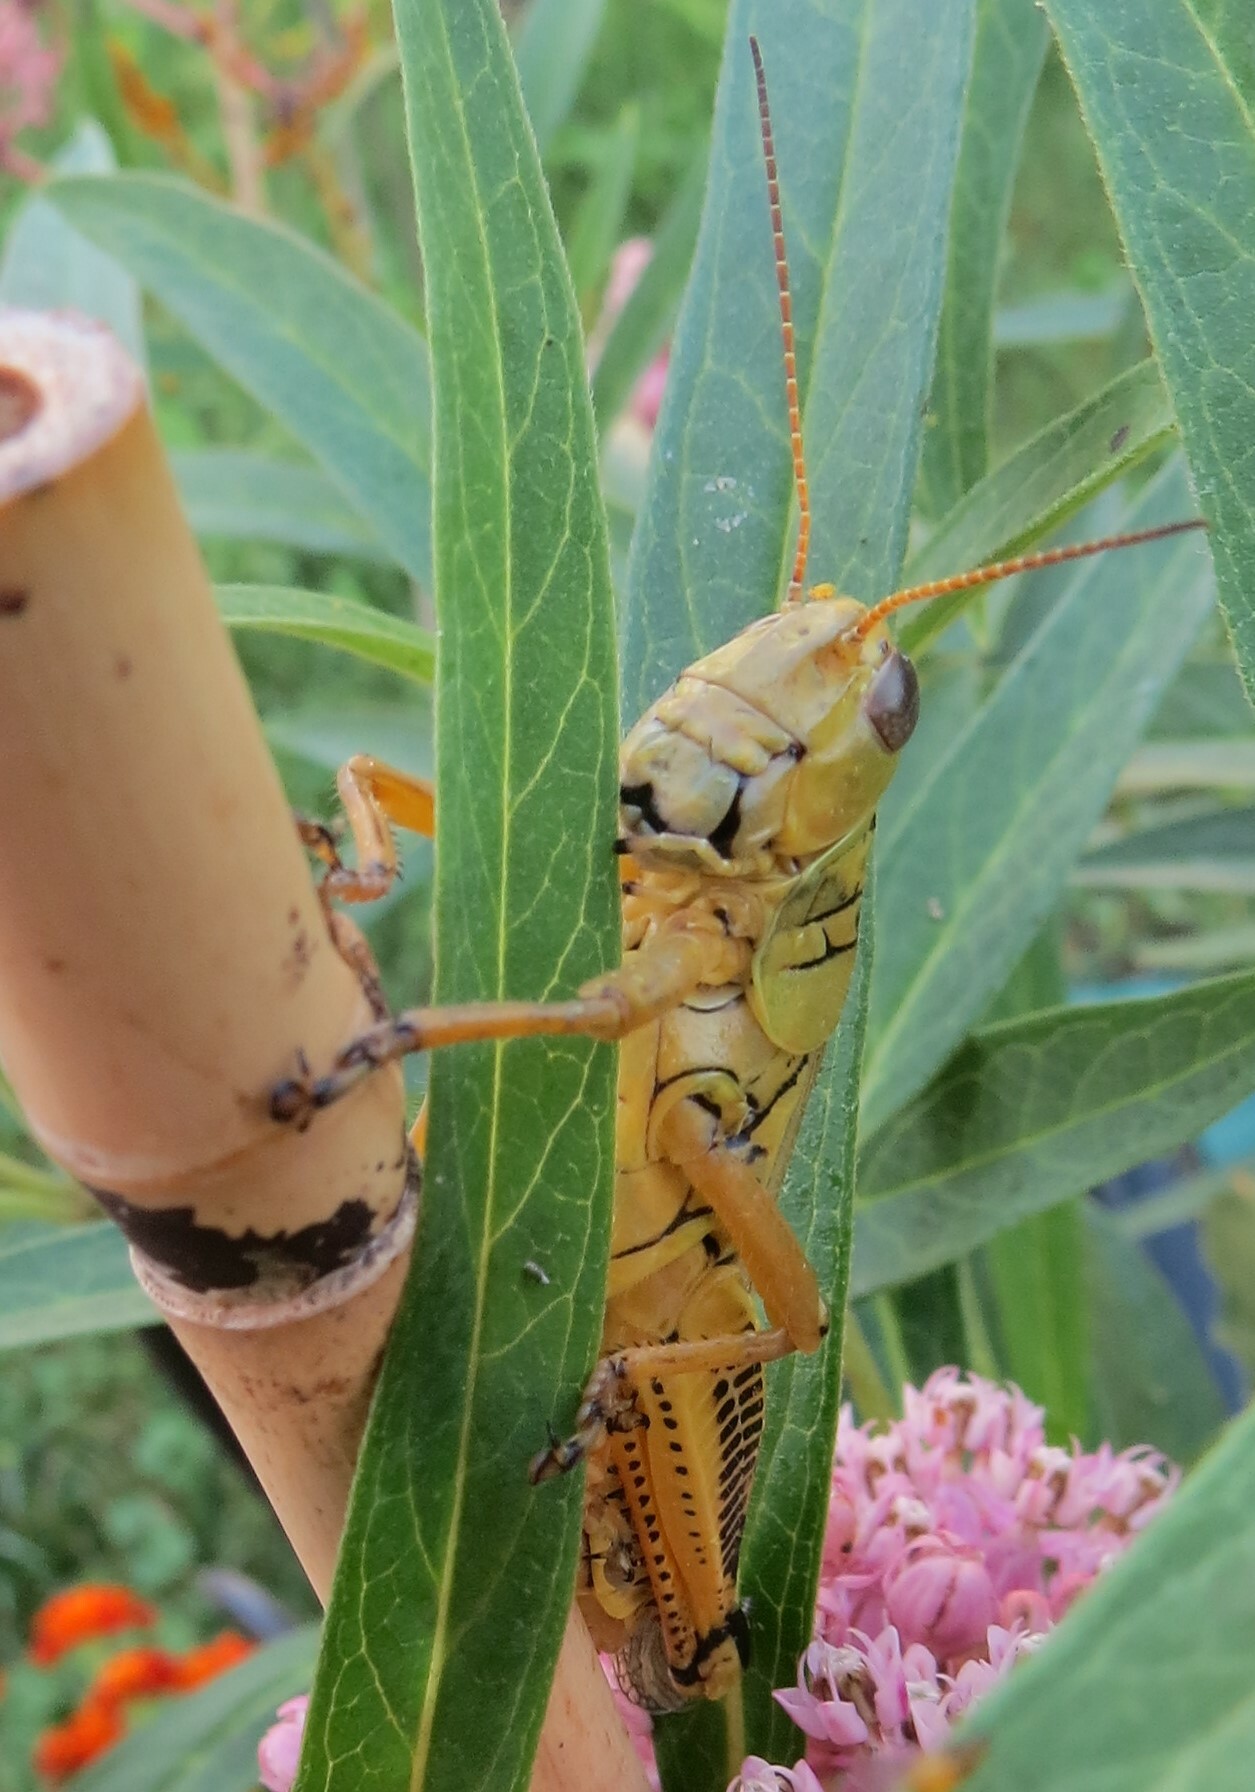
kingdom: Animalia
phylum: Arthropoda
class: Insecta
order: Orthoptera
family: Acrididae
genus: Melanoplus
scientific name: Melanoplus differentialis
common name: Differential grasshopper
